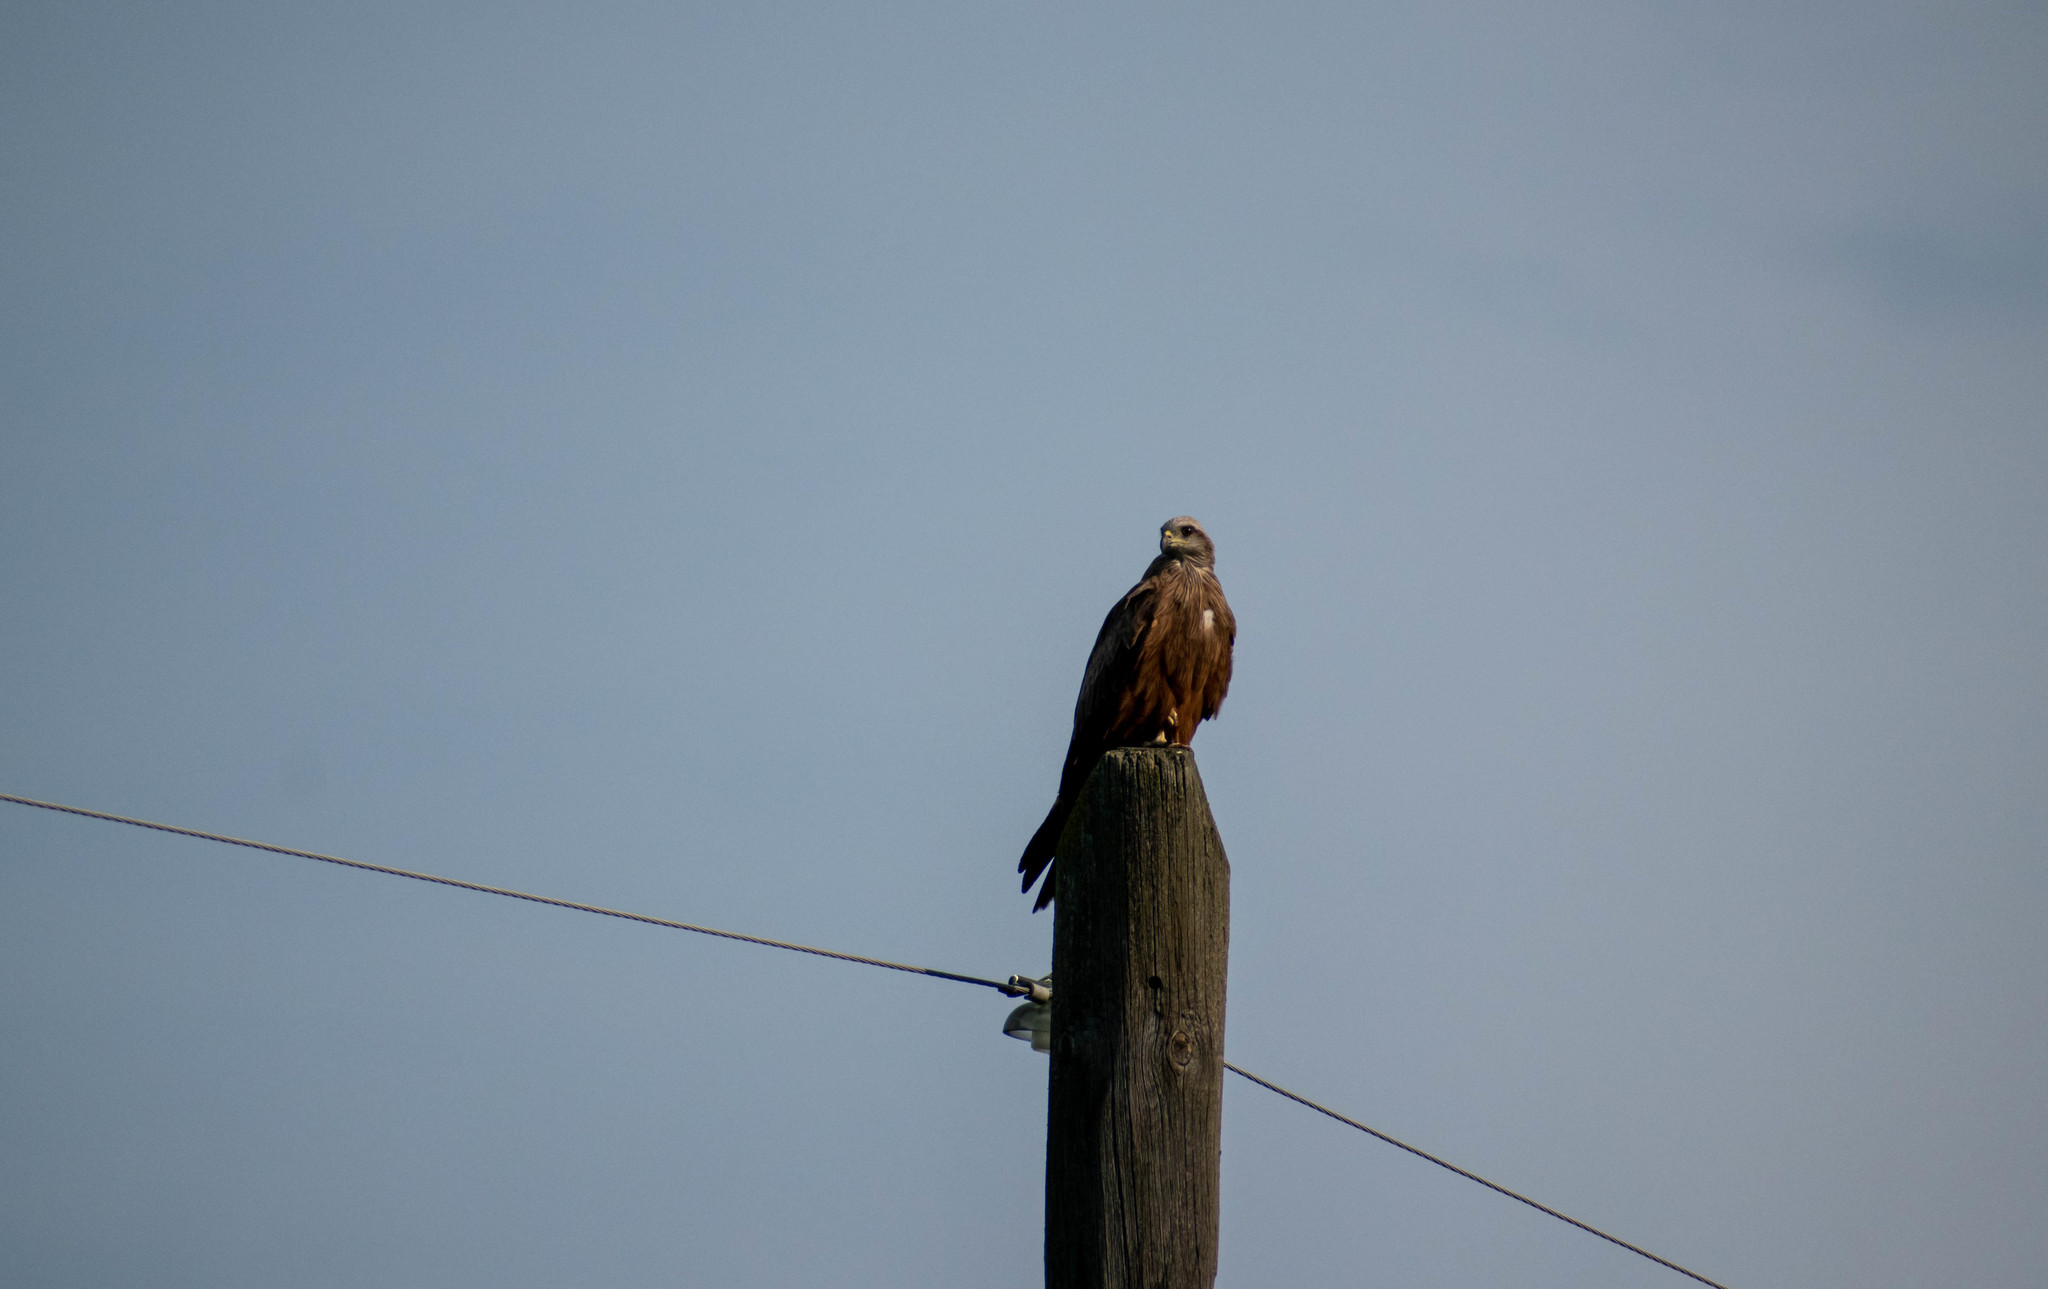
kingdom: Animalia
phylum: Chordata
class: Aves
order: Accipitriformes
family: Accipitridae
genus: Milvus
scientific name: Milvus migrans
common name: Black kite
